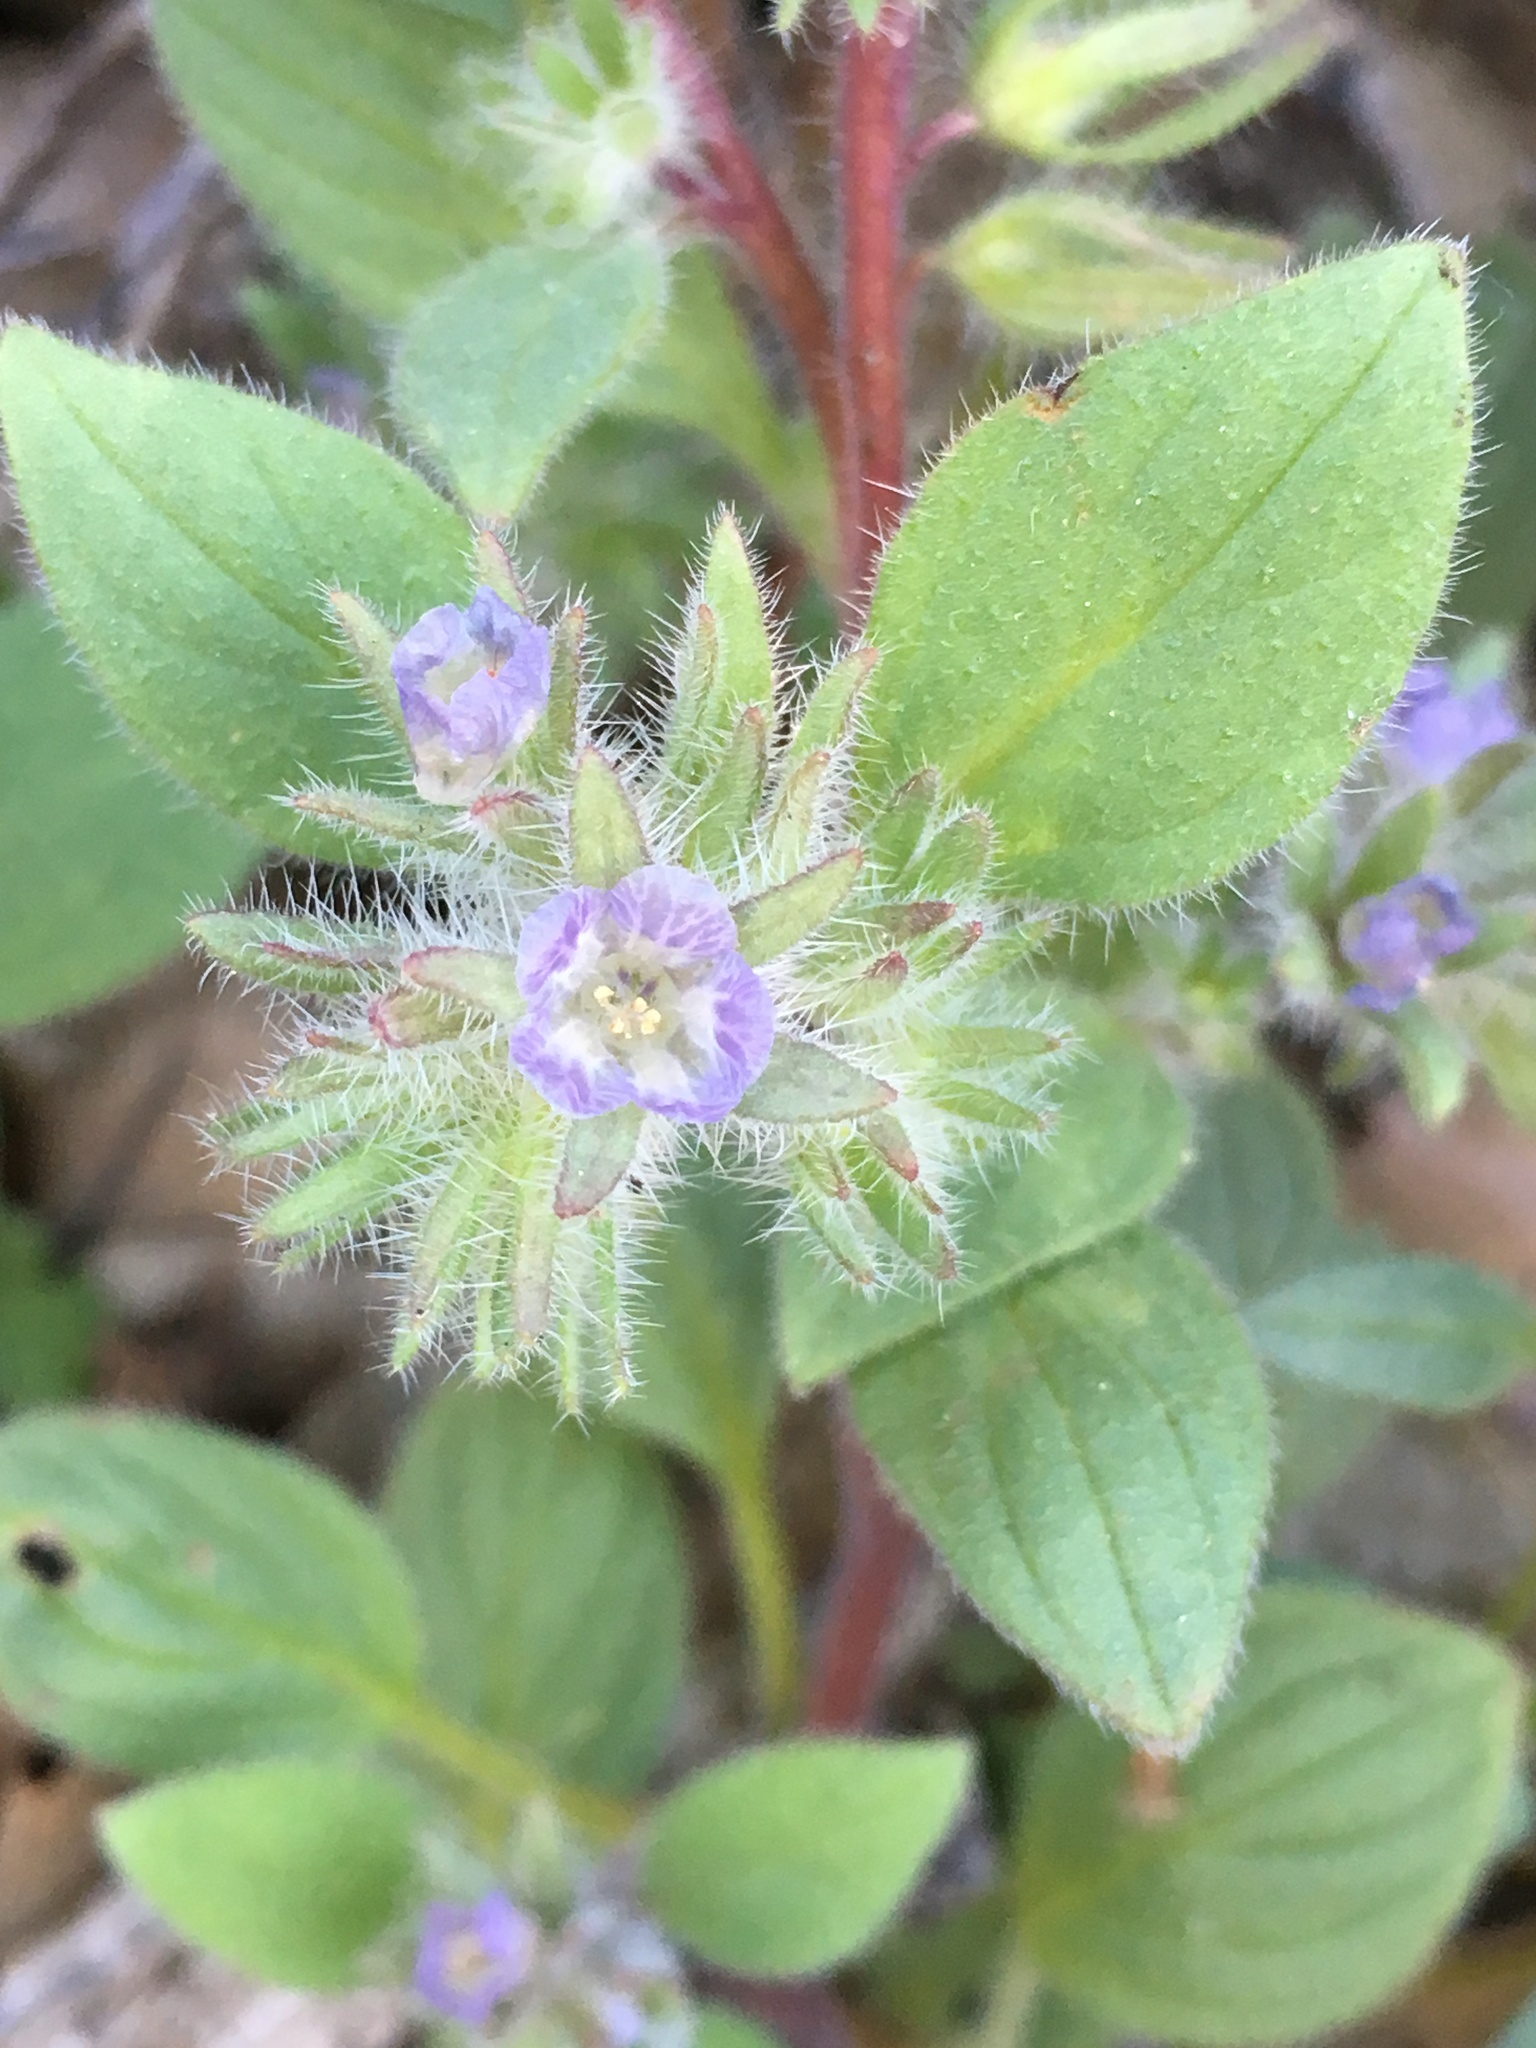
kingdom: Plantae
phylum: Tracheophyta
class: Magnoliopsida
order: Boraginales
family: Hydrophyllaceae
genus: Phacelia
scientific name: Phacelia novenmillensis
